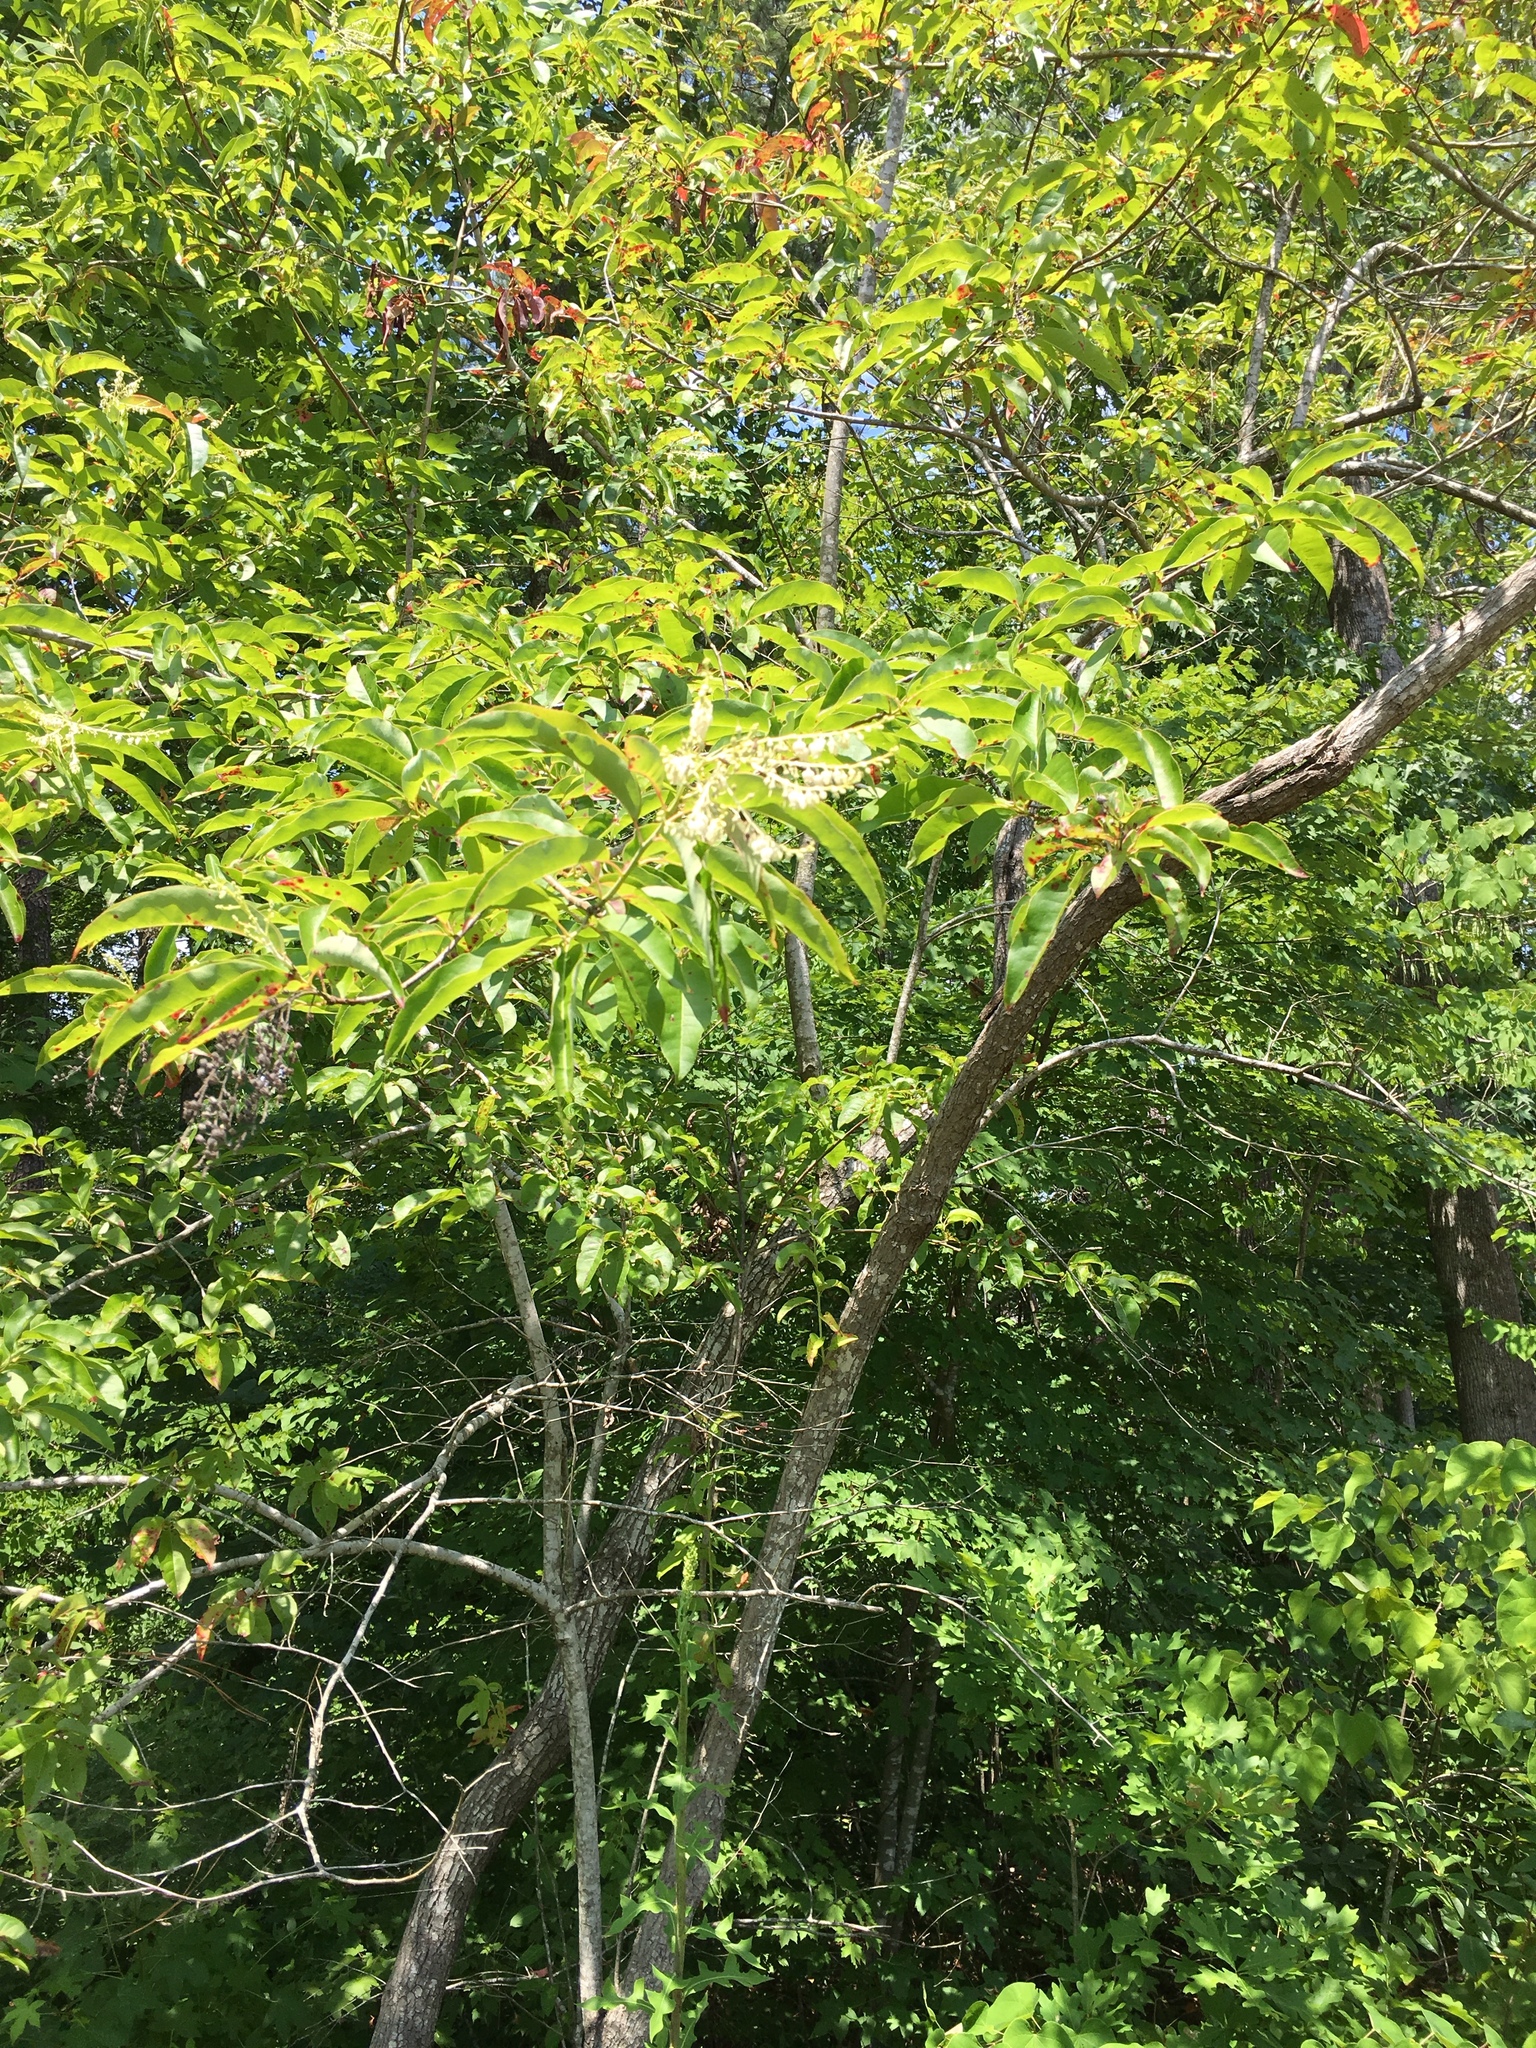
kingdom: Plantae
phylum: Tracheophyta
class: Magnoliopsida
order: Ericales
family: Ericaceae
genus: Oxydendrum
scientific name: Oxydendrum arboreum
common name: Sourwood
